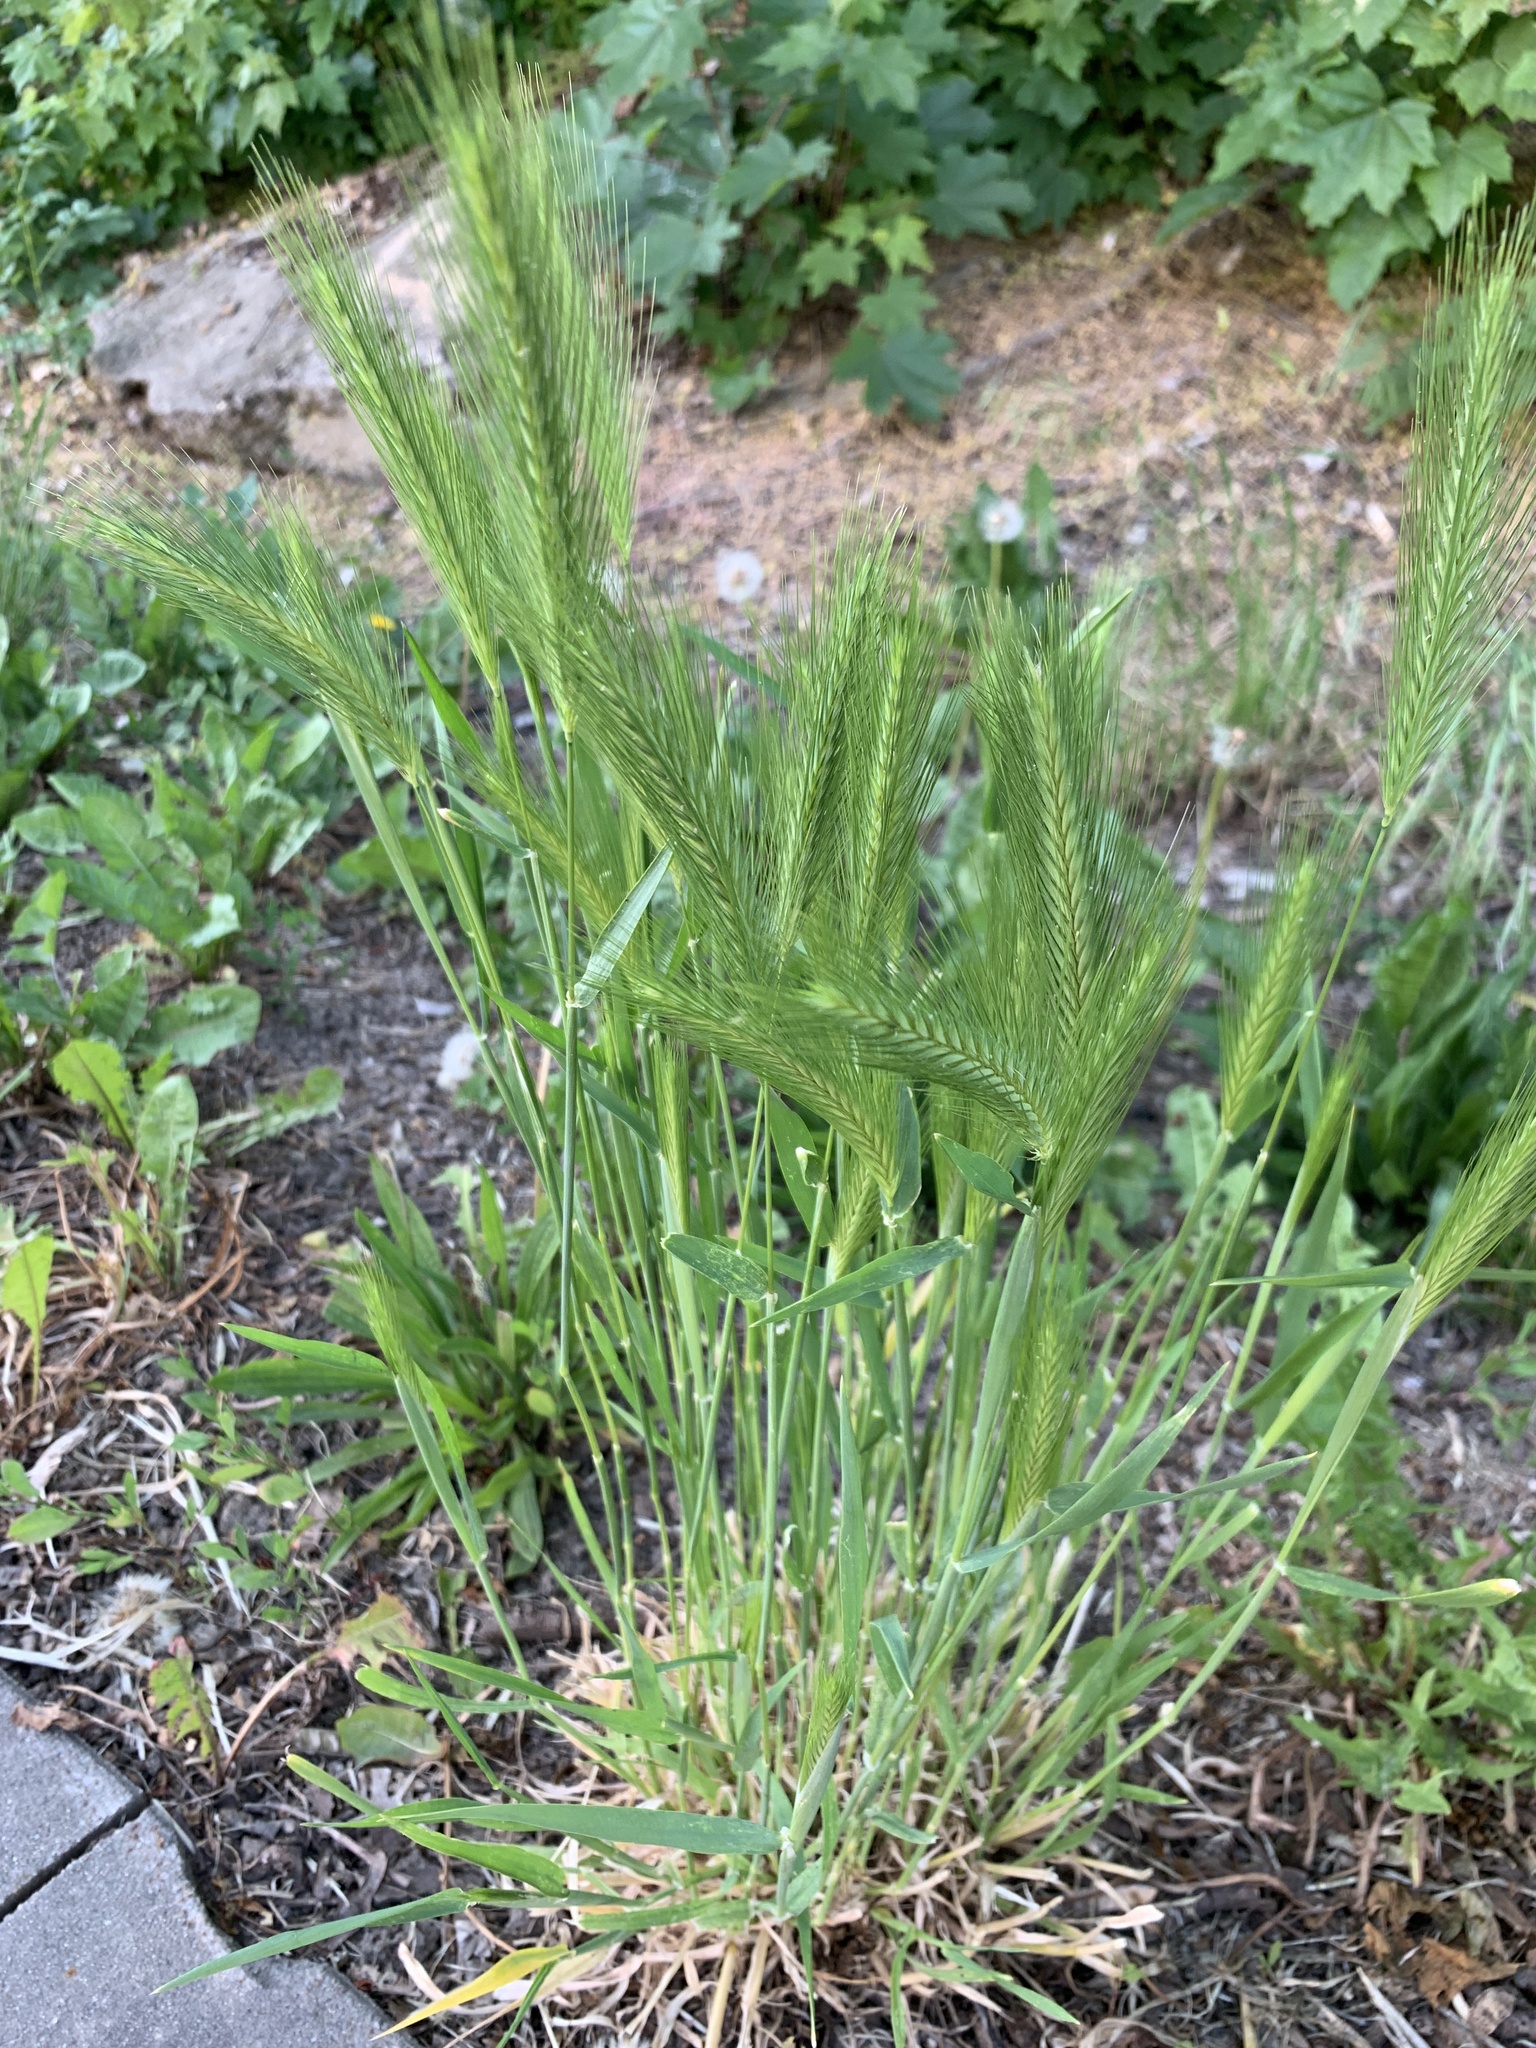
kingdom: Plantae
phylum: Tracheophyta
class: Liliopsida
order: Poales
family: Poaceae
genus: Hordeum
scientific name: Hordeum murinum
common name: Wall barley
